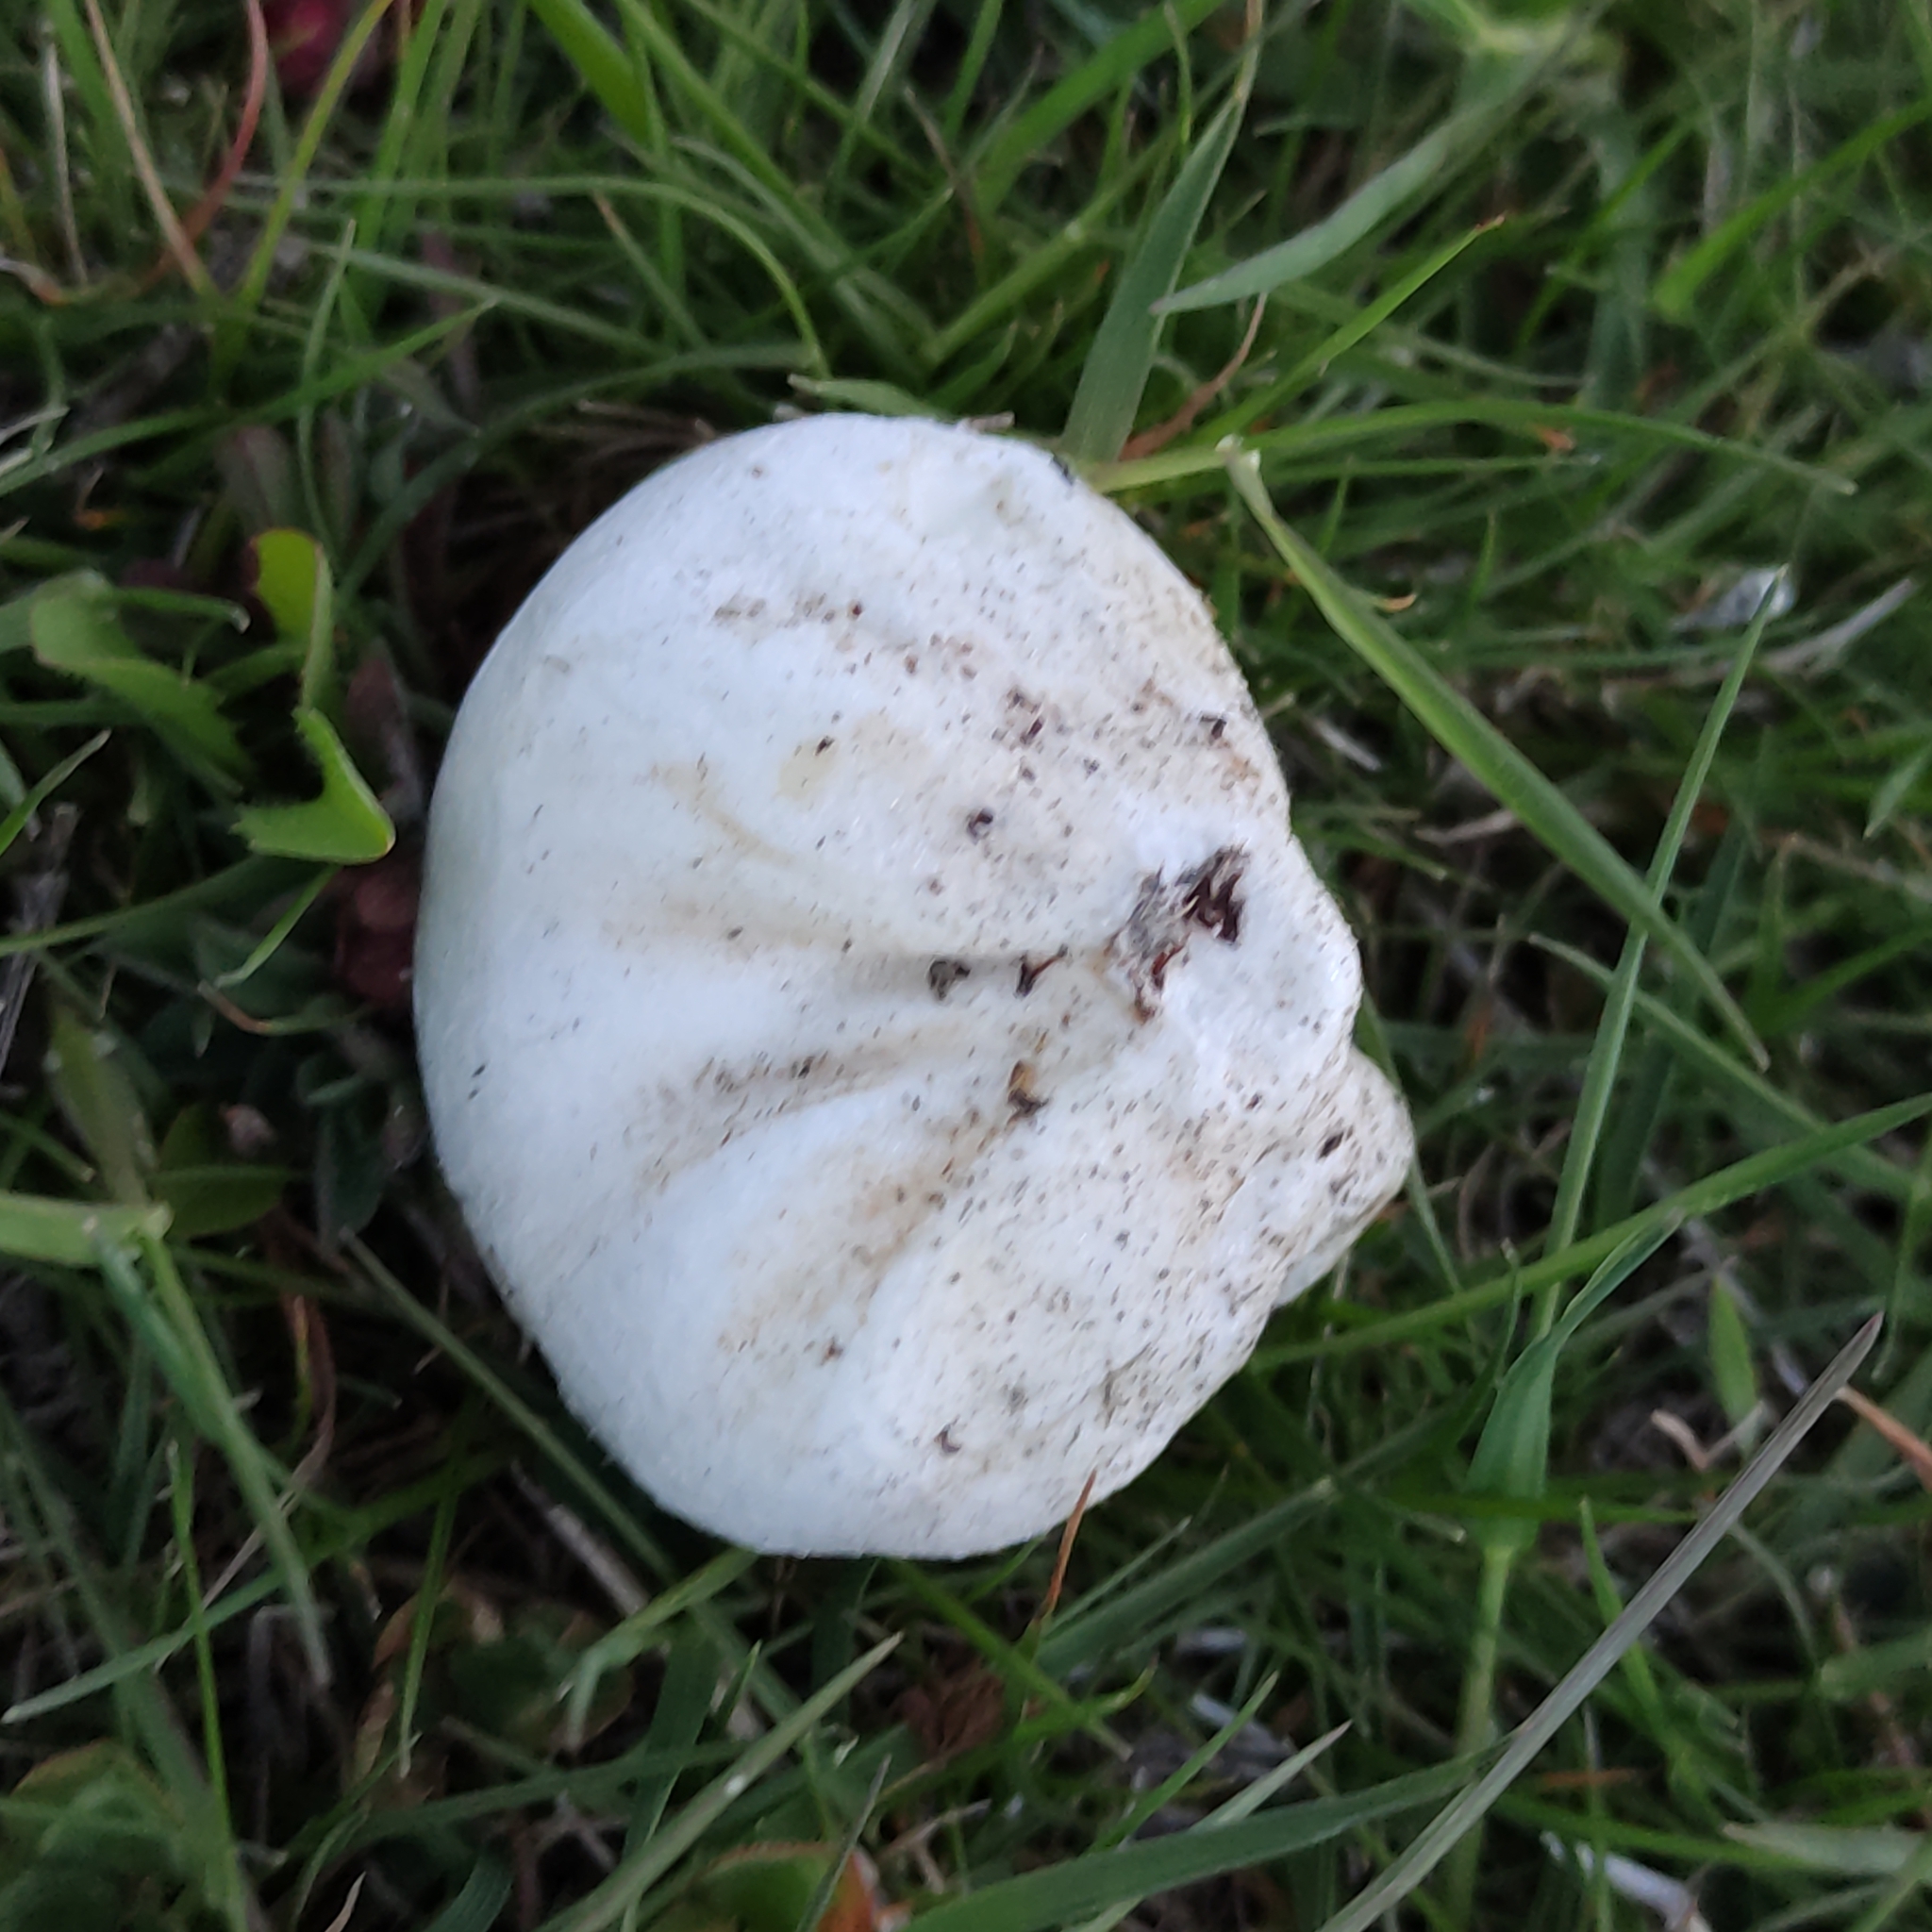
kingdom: Fungi
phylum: Basidiomycota
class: Agaricomycetes
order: Agaricales
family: Lycoperdaceae
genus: Bovista
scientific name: Bovista plumbea
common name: Grey puffball
